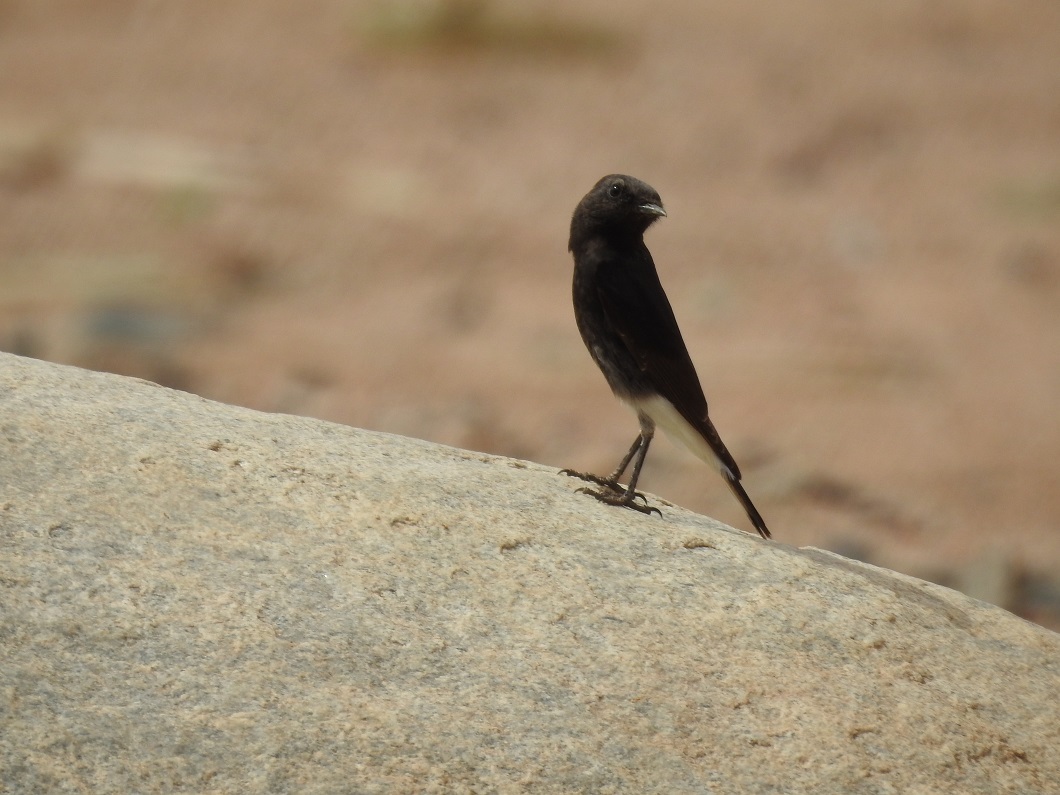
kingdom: Animalia
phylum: Chordata
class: Aves
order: Passeriformes
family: Muscicapidae
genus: Oenanthe
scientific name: Oenanthe leucopyga
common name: White-crowned wheatear
